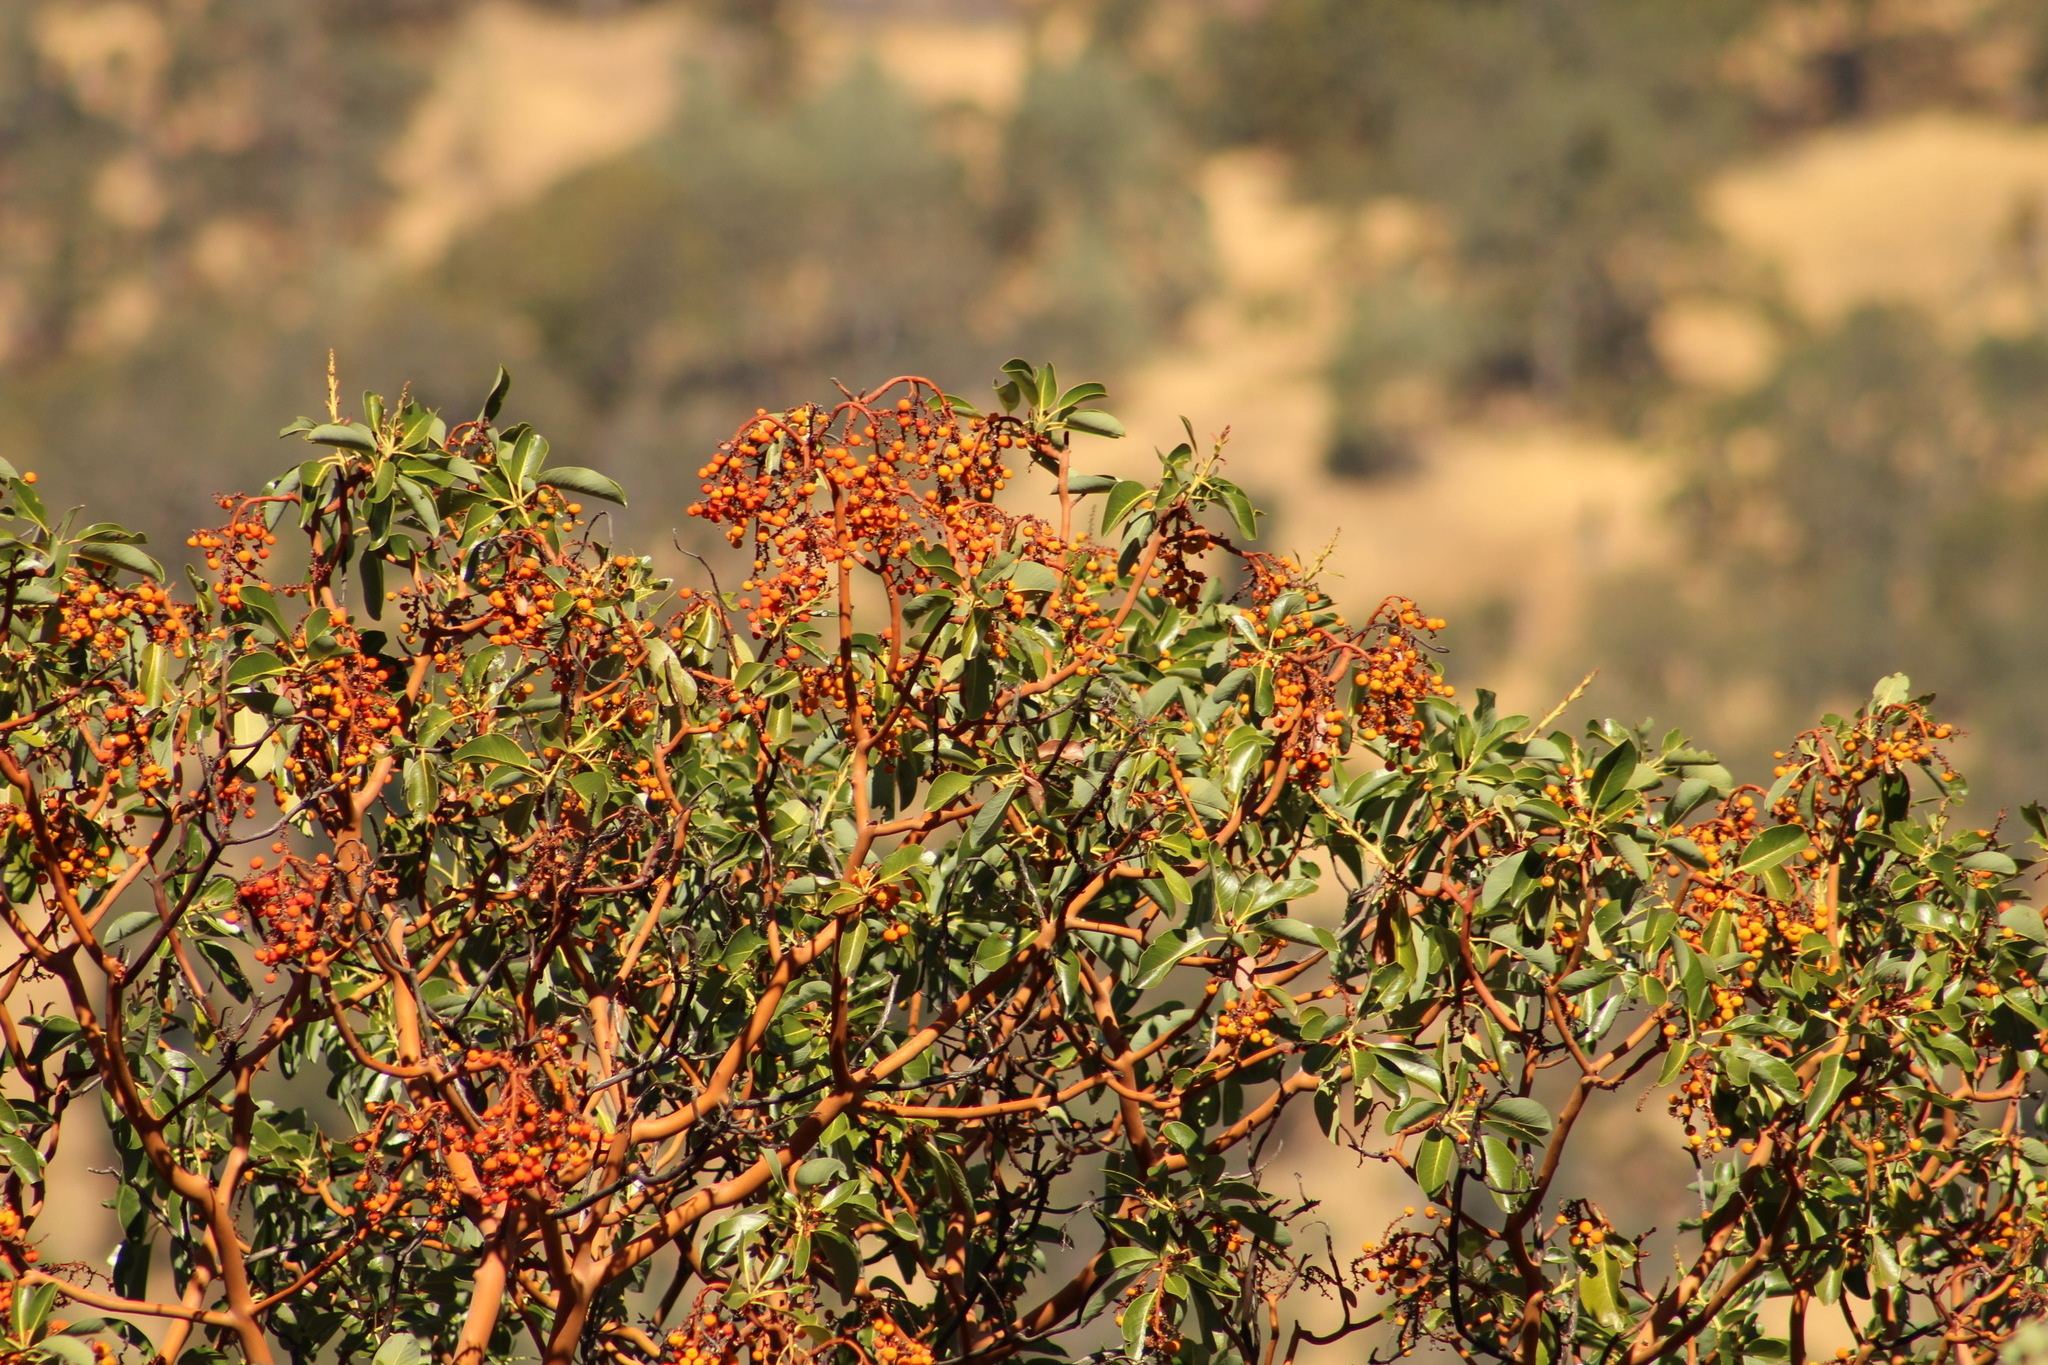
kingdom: Plantae
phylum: Tracheophyta
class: Magnoliopsida
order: Ericales
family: Ericaceae
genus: Arbutus
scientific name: Arbutus menziesii
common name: Pacific madrone
